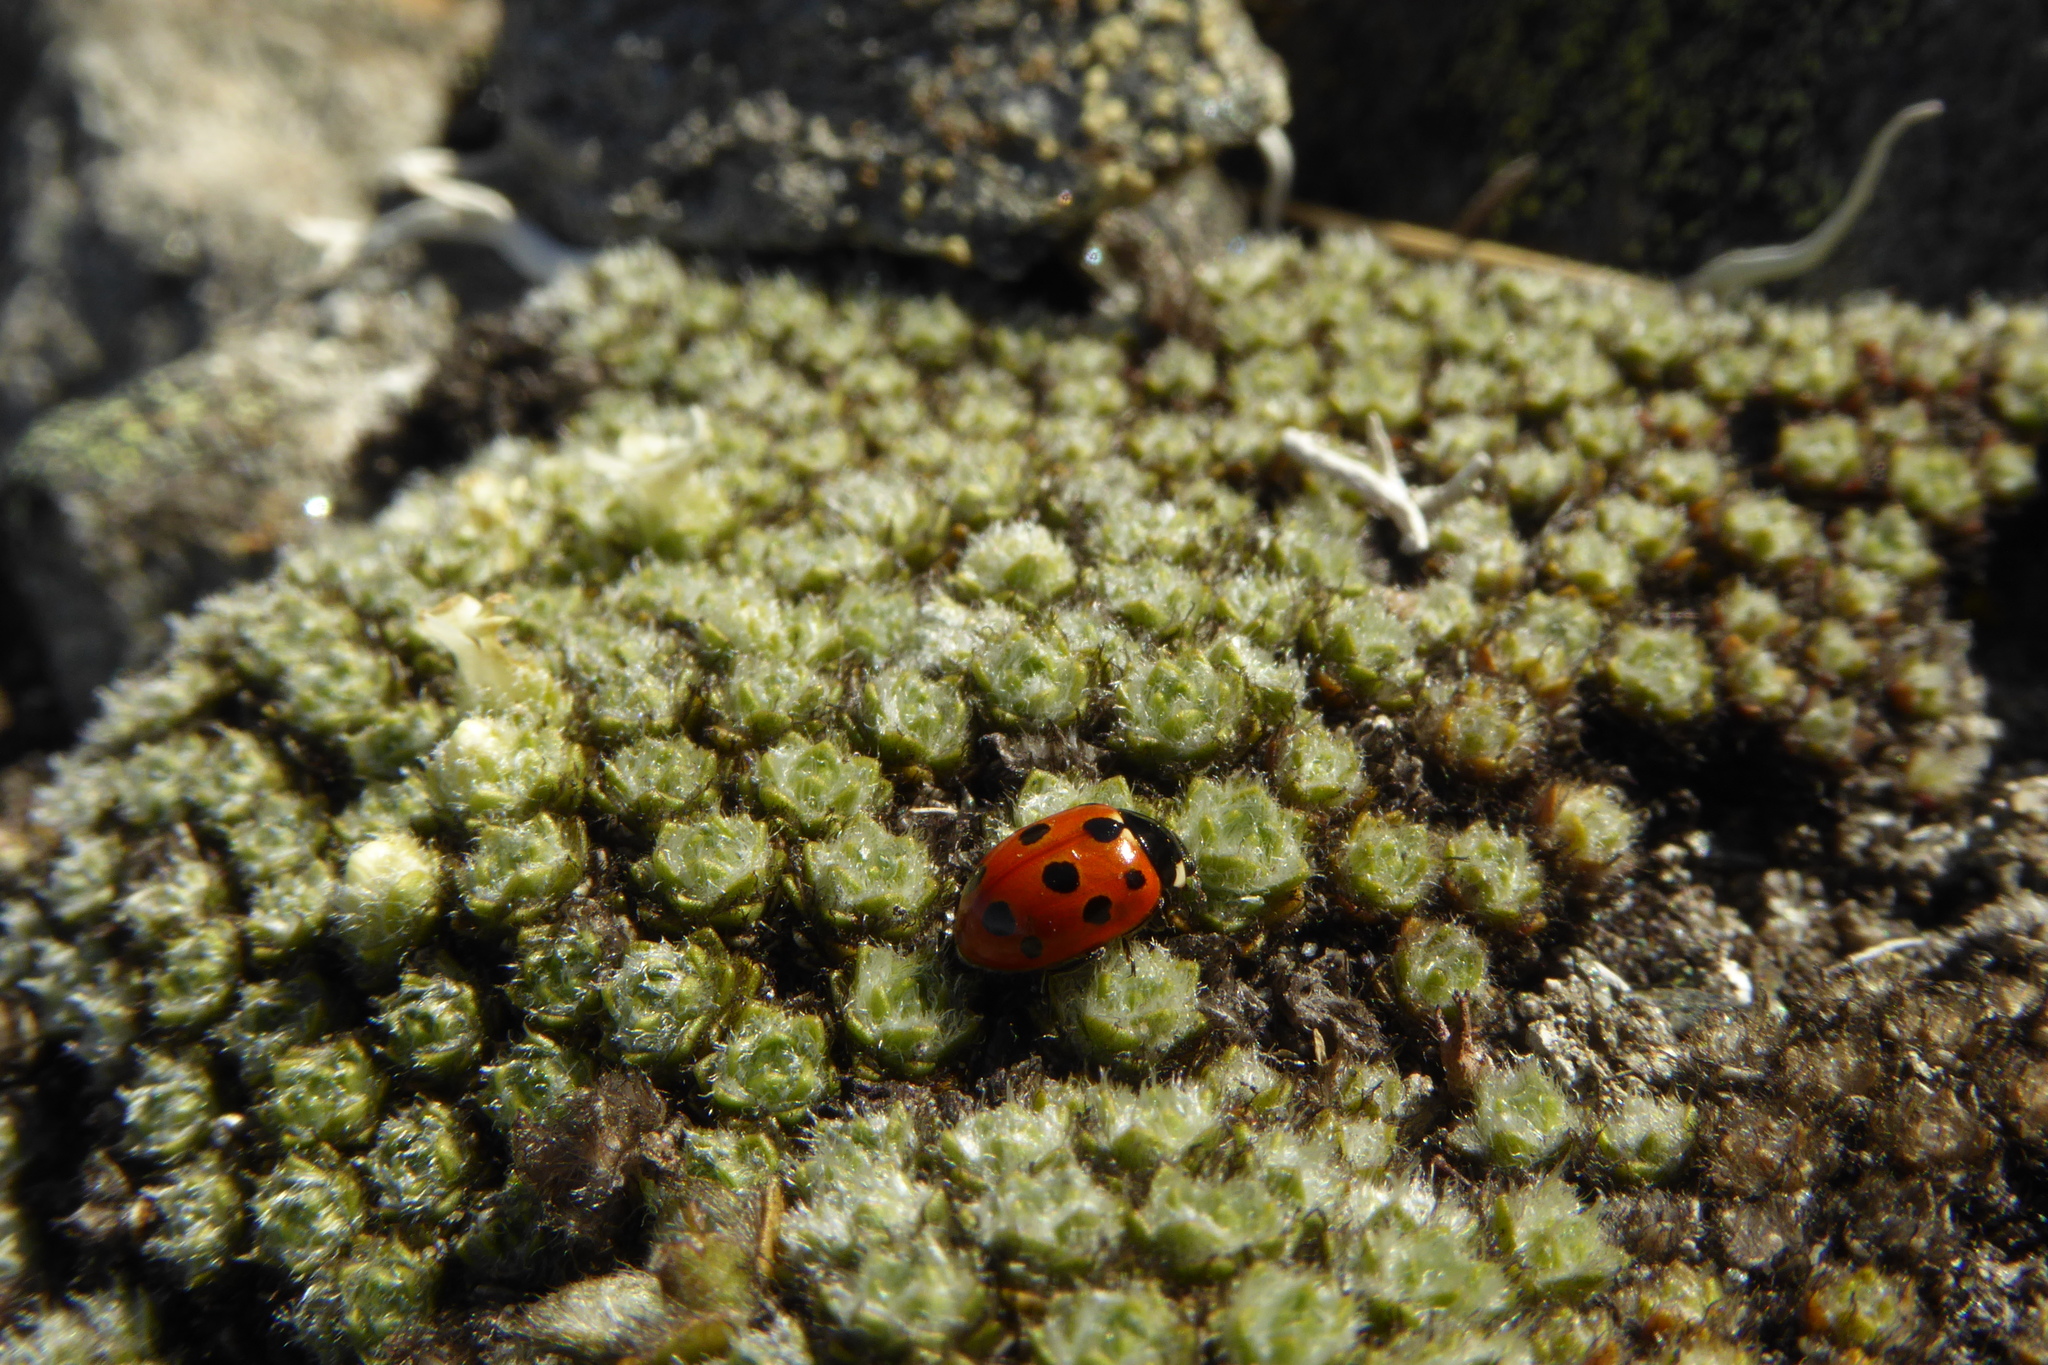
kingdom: Animalia
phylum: Arthropoda
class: Insecta
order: Coleoptera
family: Coccinellidae
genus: Coccinella
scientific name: Coccinella undecimpunctata
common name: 11-spot ladybird
